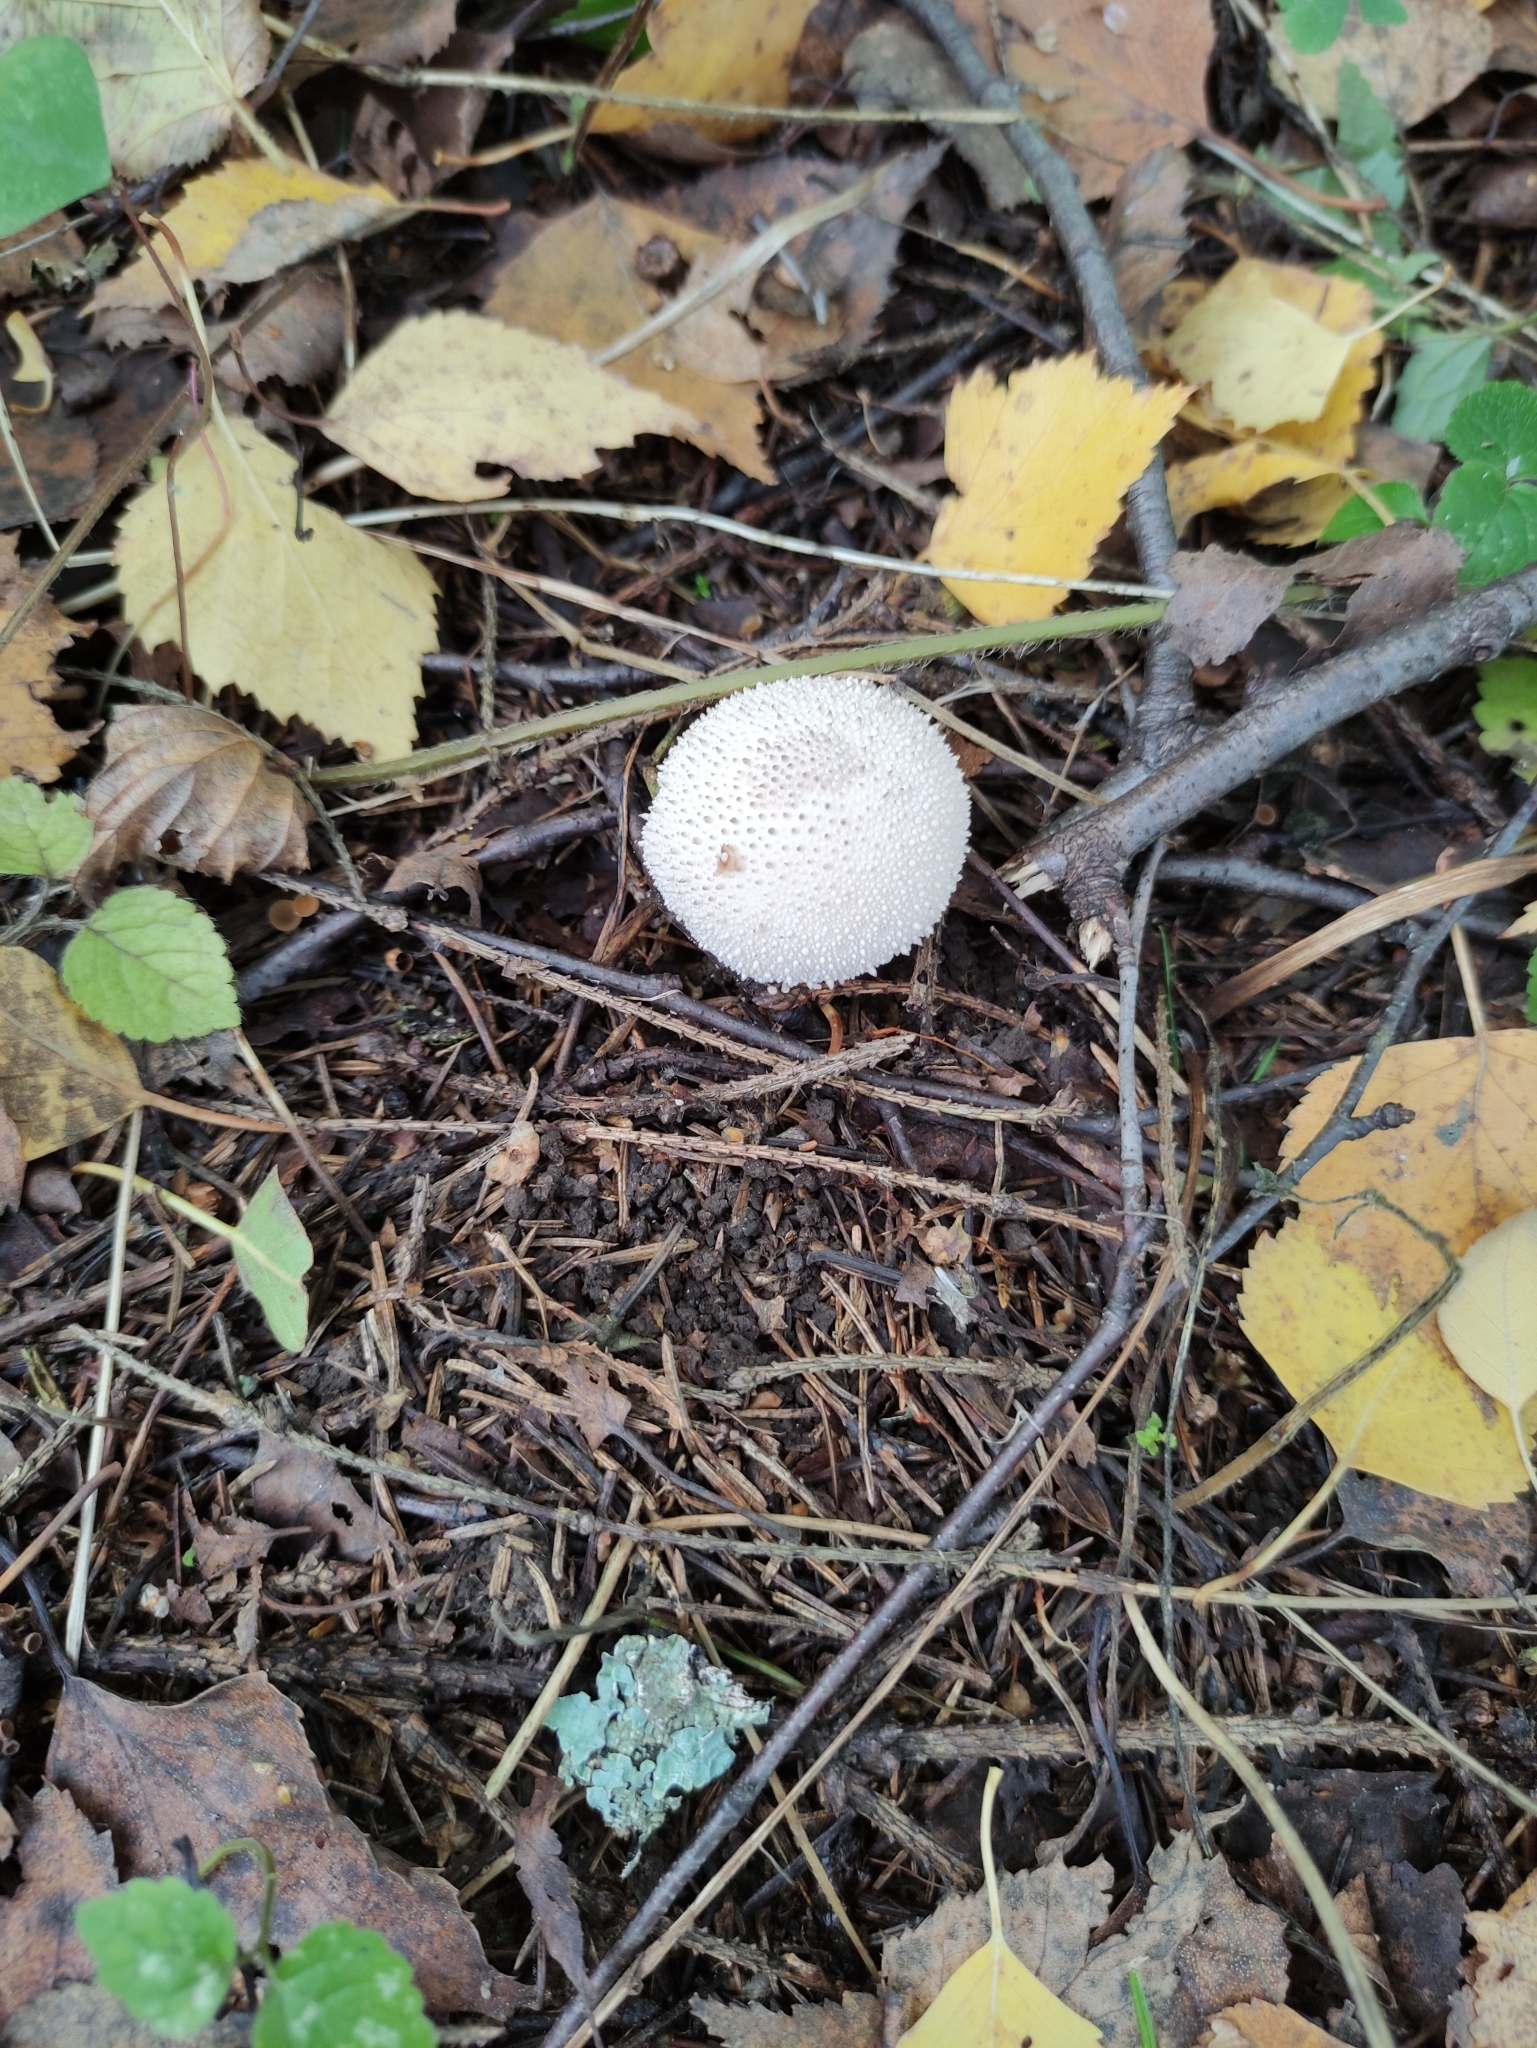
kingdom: Fungi
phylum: Basidiomycota
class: Agaricomycetes
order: Agaricales
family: Lycoperdaceae
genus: Lycoperdon
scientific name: Lycoperdon perlatum
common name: Common puffball
